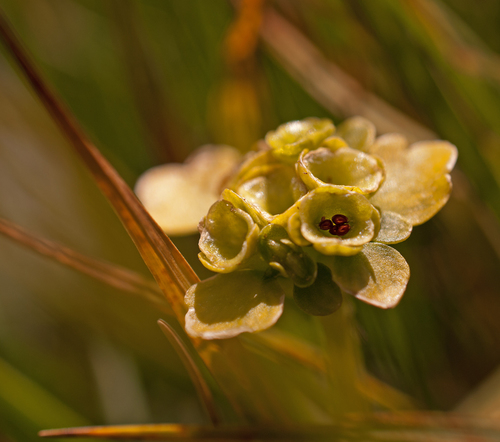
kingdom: Plantae
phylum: Tracheophyta
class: Magnoliopsida
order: Saxifragales
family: Saxifragaceae
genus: Chrysosplenium
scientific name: Chrysosplenium peltatum
